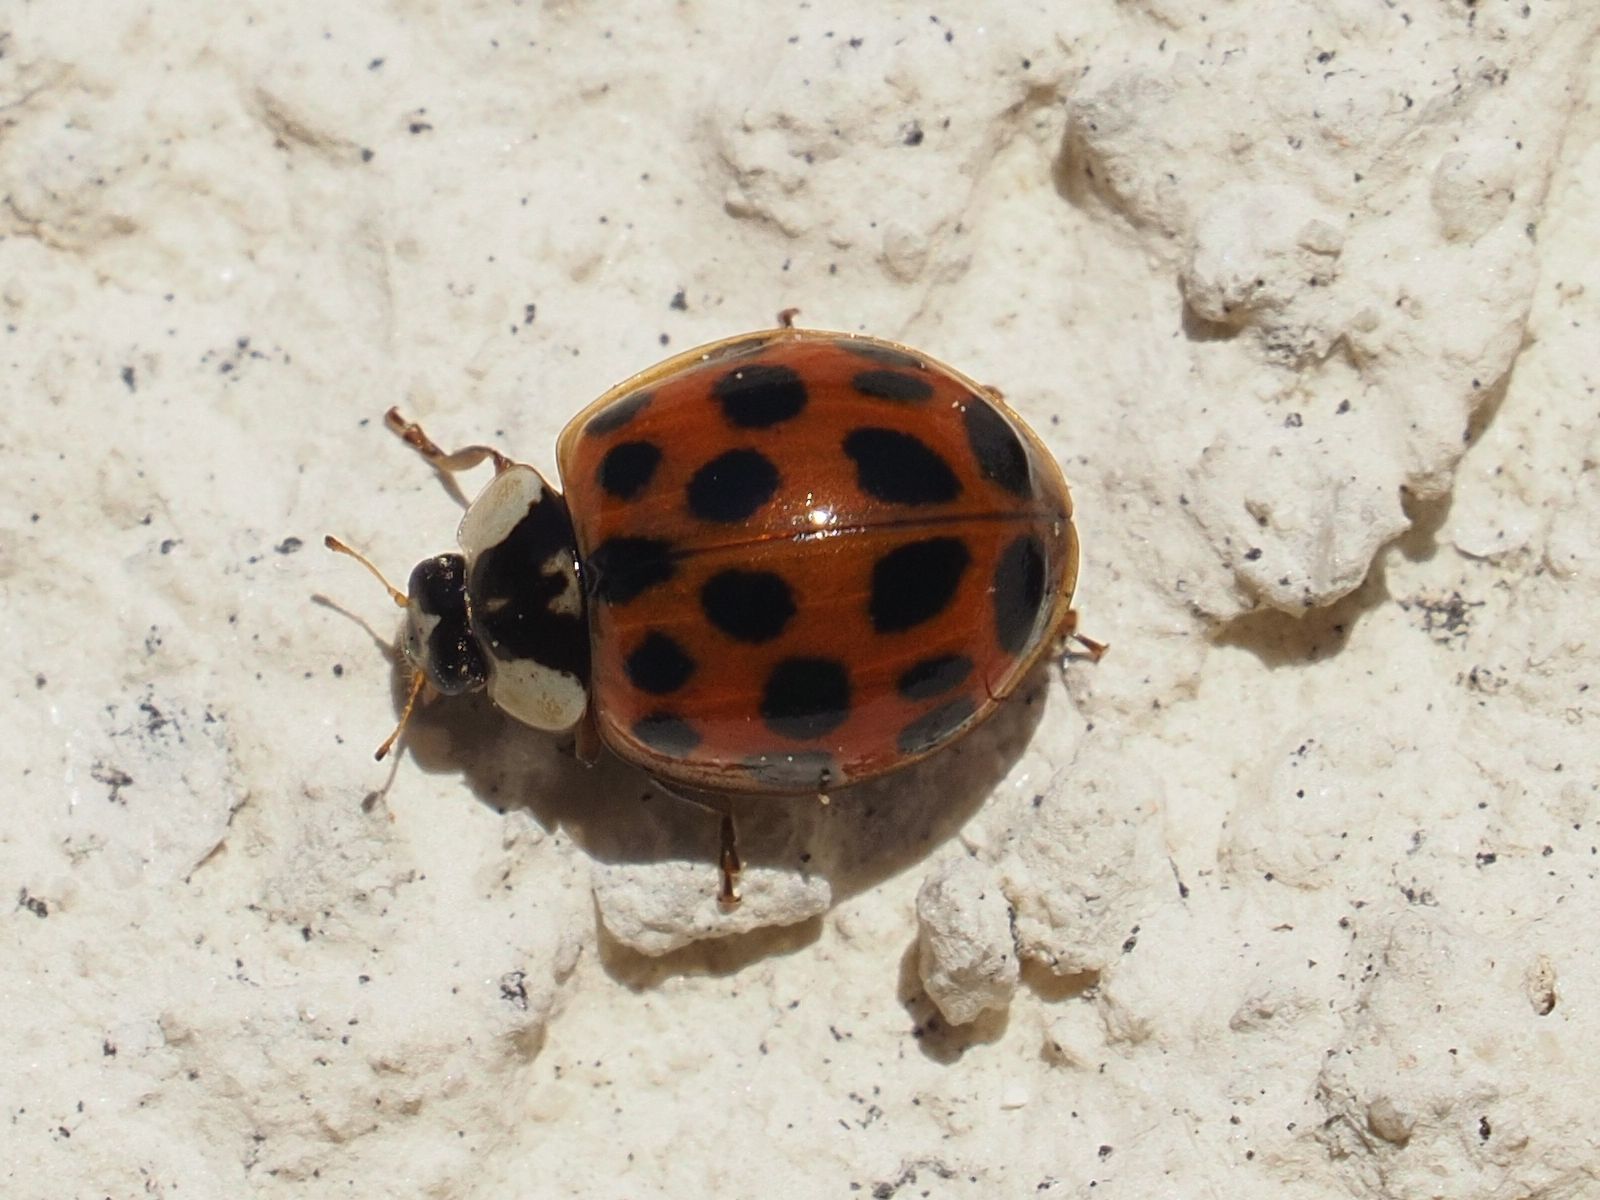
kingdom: Animalia
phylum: Arthropoda
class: Insecta
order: Coleoptera
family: Coccinellidae
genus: Harmonia
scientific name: Harmonia axyridis
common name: Harlequin ladybird
